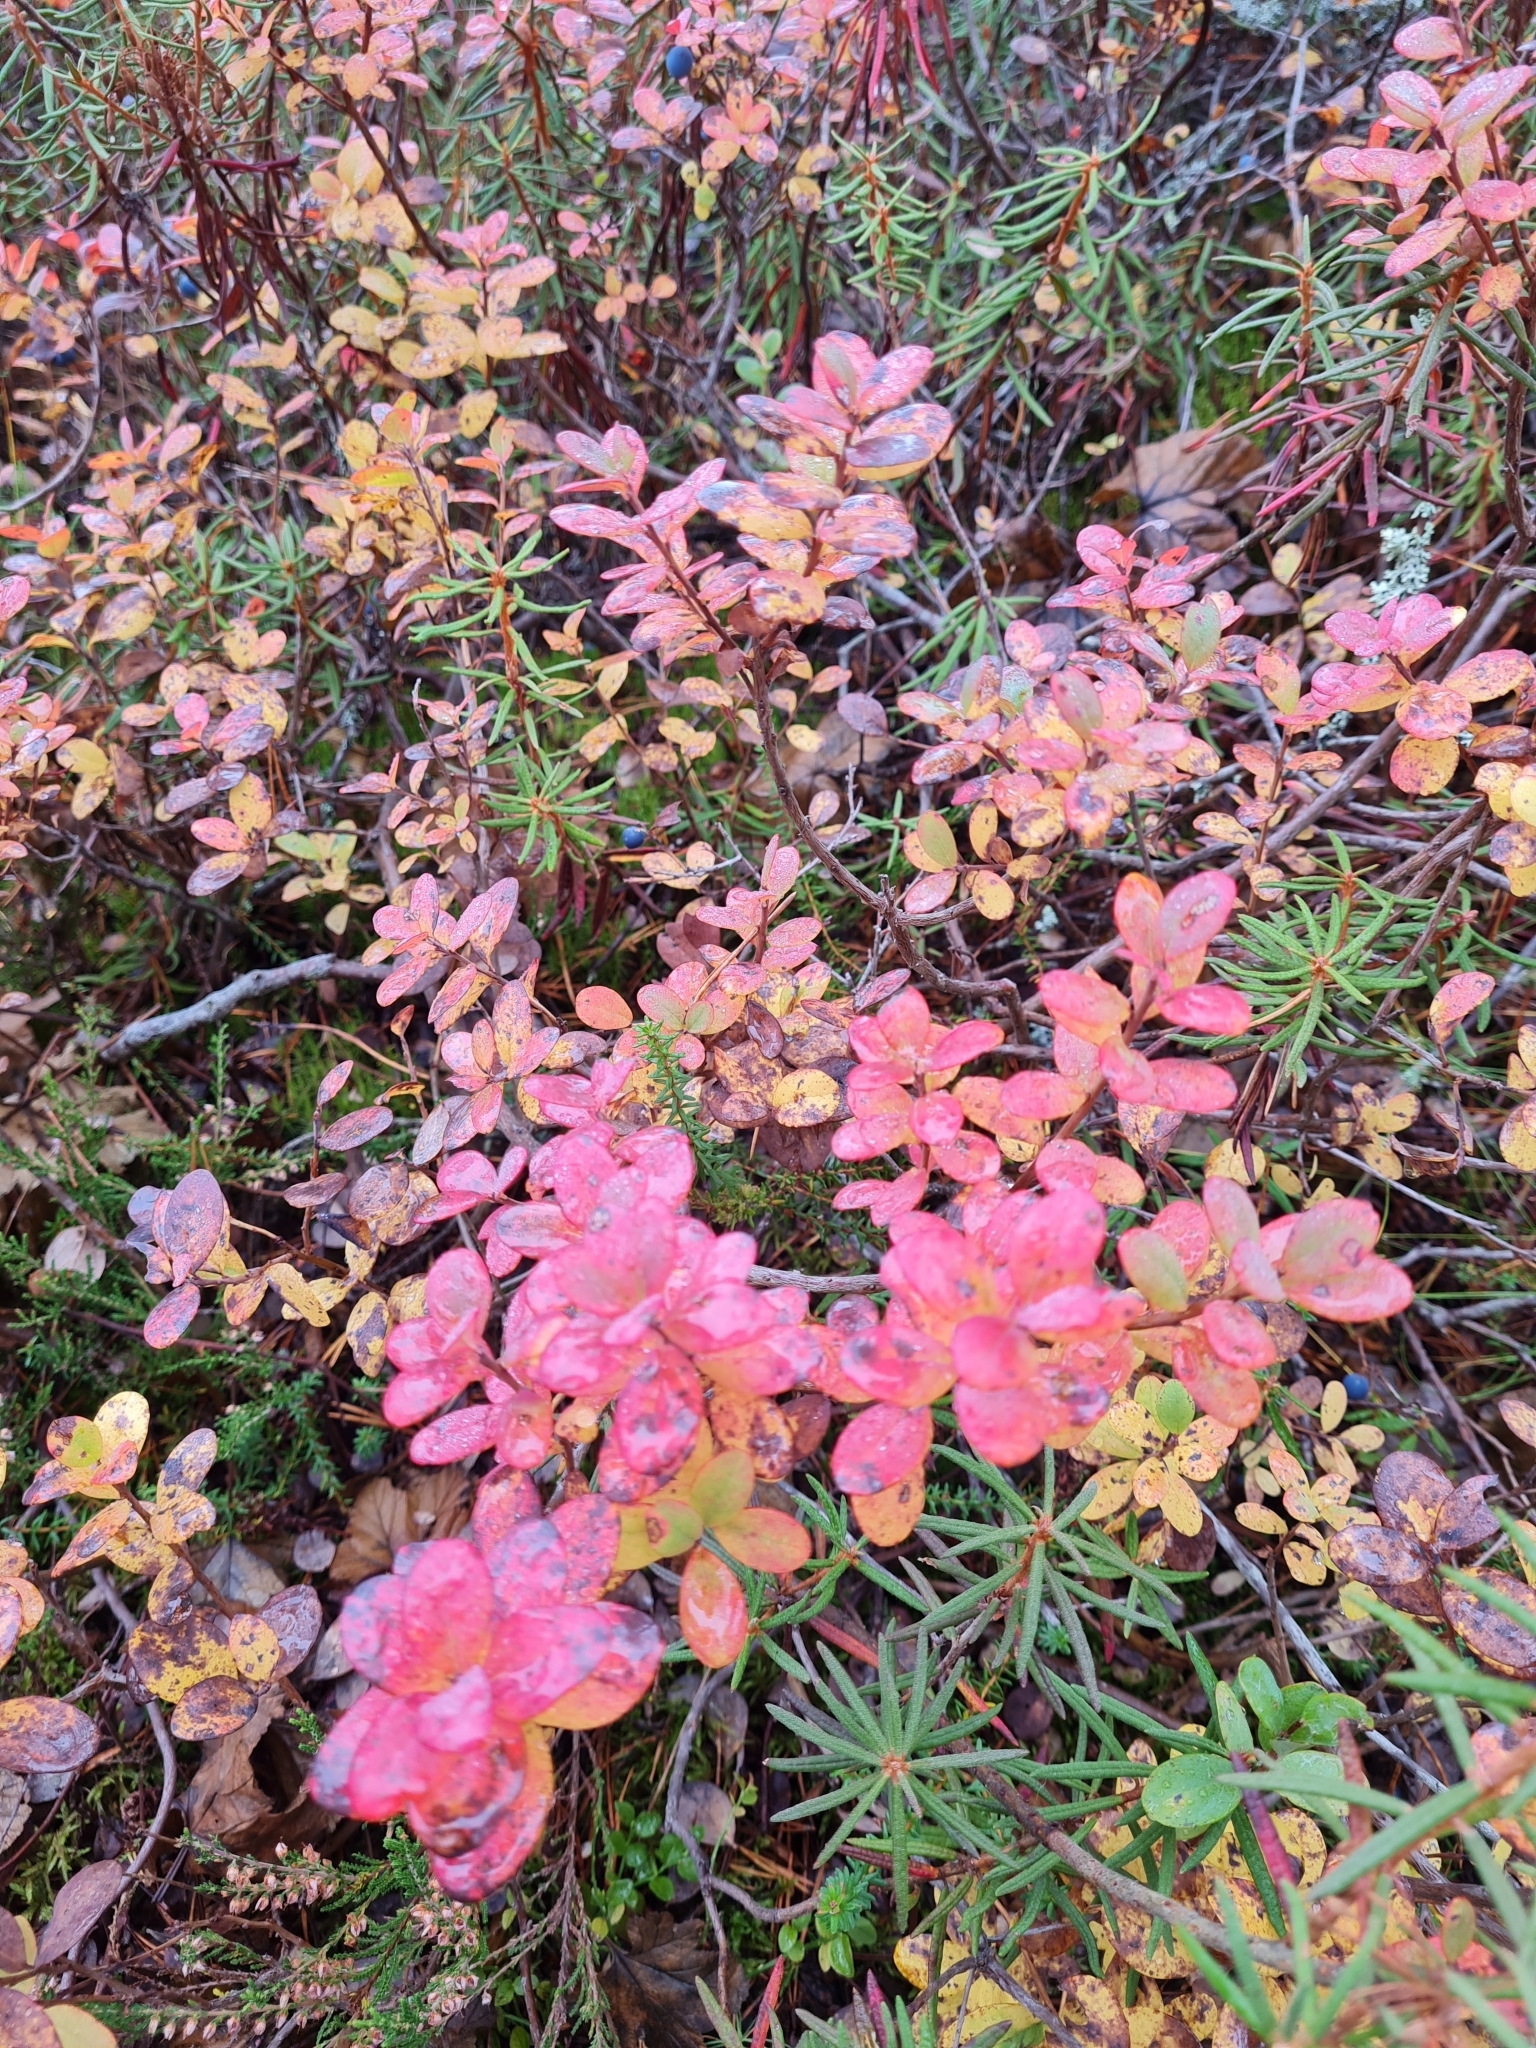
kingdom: Plantae
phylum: Tracheophyta
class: Magnoliopsida
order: Ericales
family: Ericaceae
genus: Vaccinium
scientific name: Vaccinium uliginosum
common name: Bog bilberry
